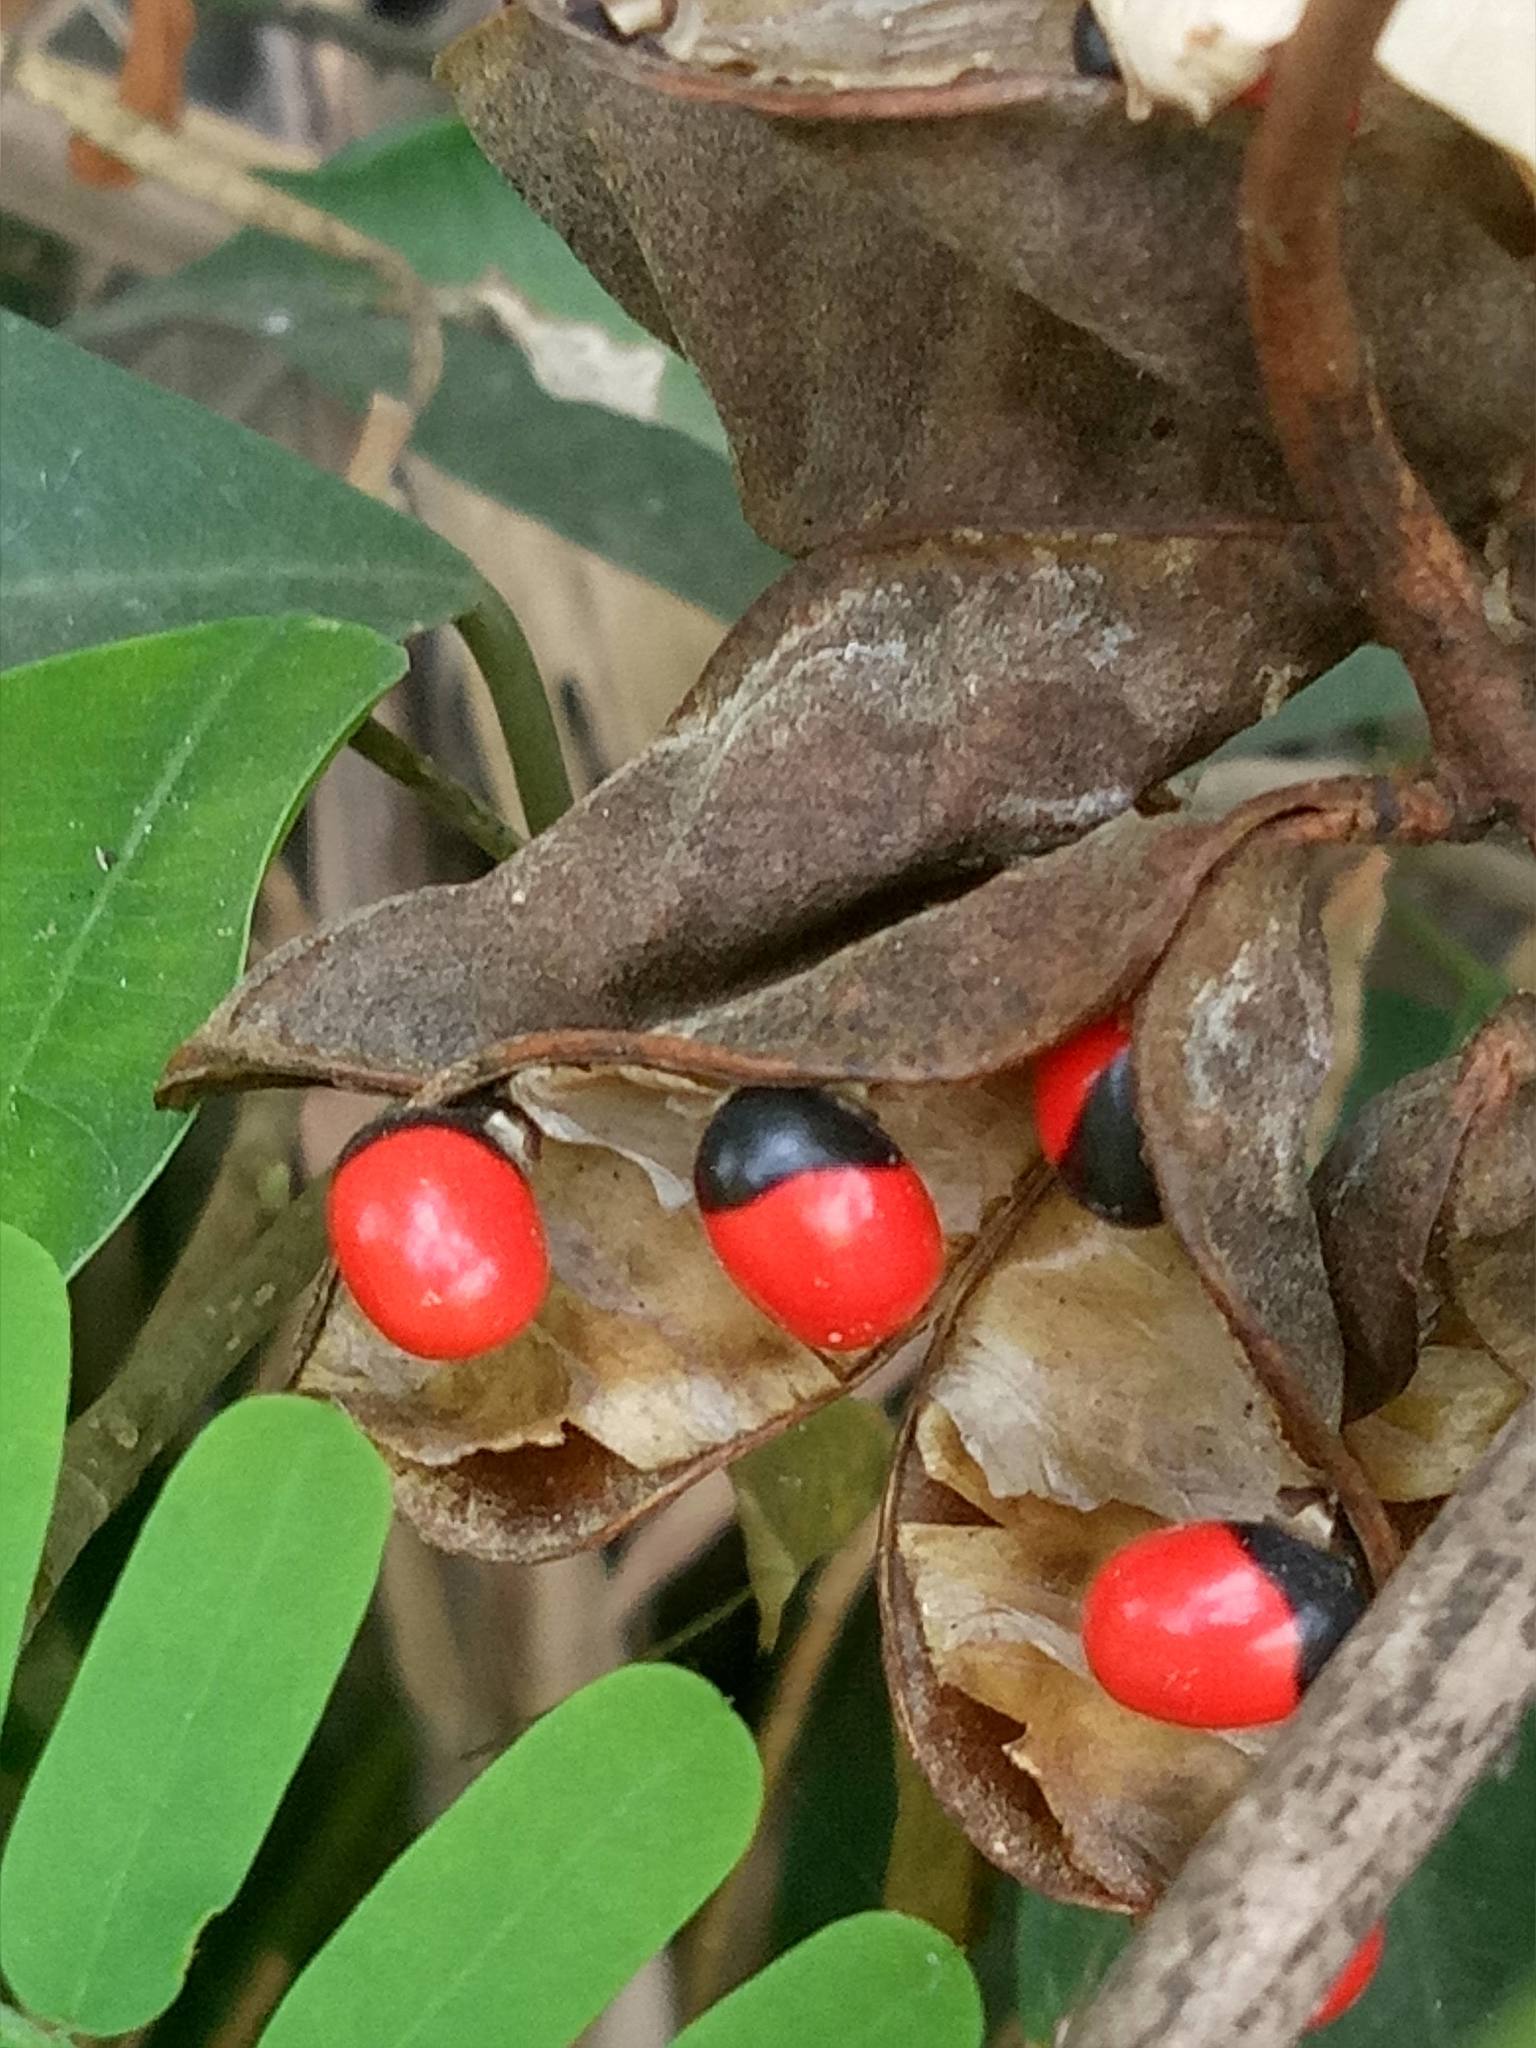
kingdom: Plantae
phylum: Tracheophyta
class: Magnoliopsida
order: Fabales
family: Fabaceae
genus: Abrus
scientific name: Abrus precatorius
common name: Rosarypea
